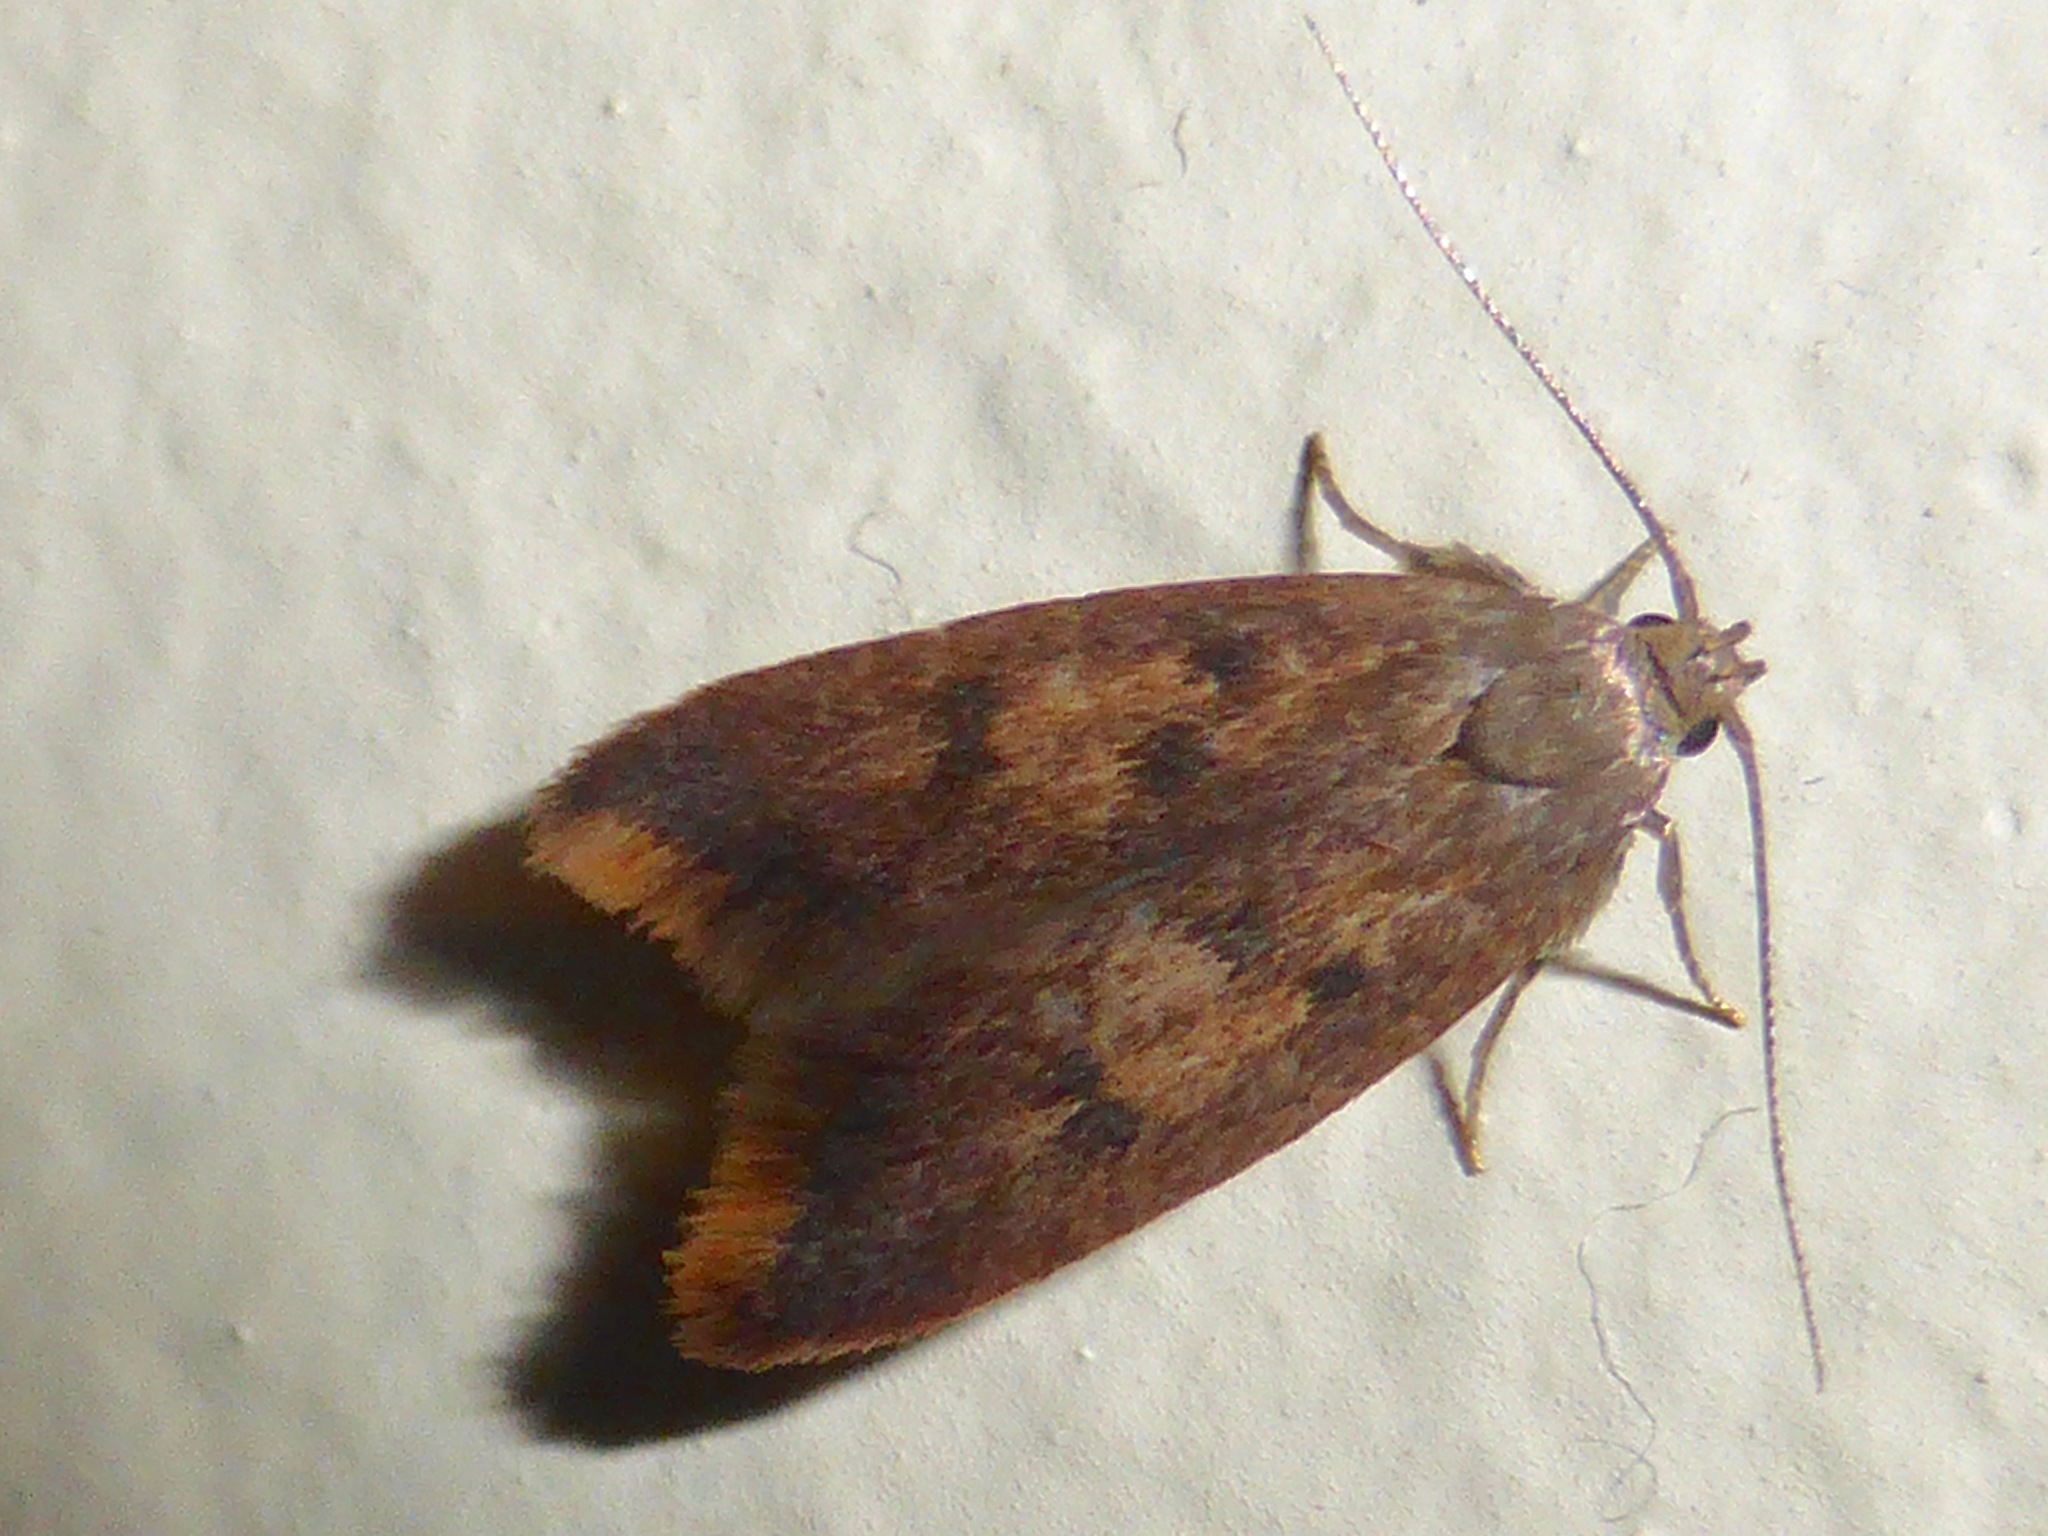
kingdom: Animalia
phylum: Arthropoda
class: Insecta
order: Lepidoptera
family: Oecophoridae
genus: Tachystola
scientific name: Tachystola acroxantha
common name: Ruddy streak
